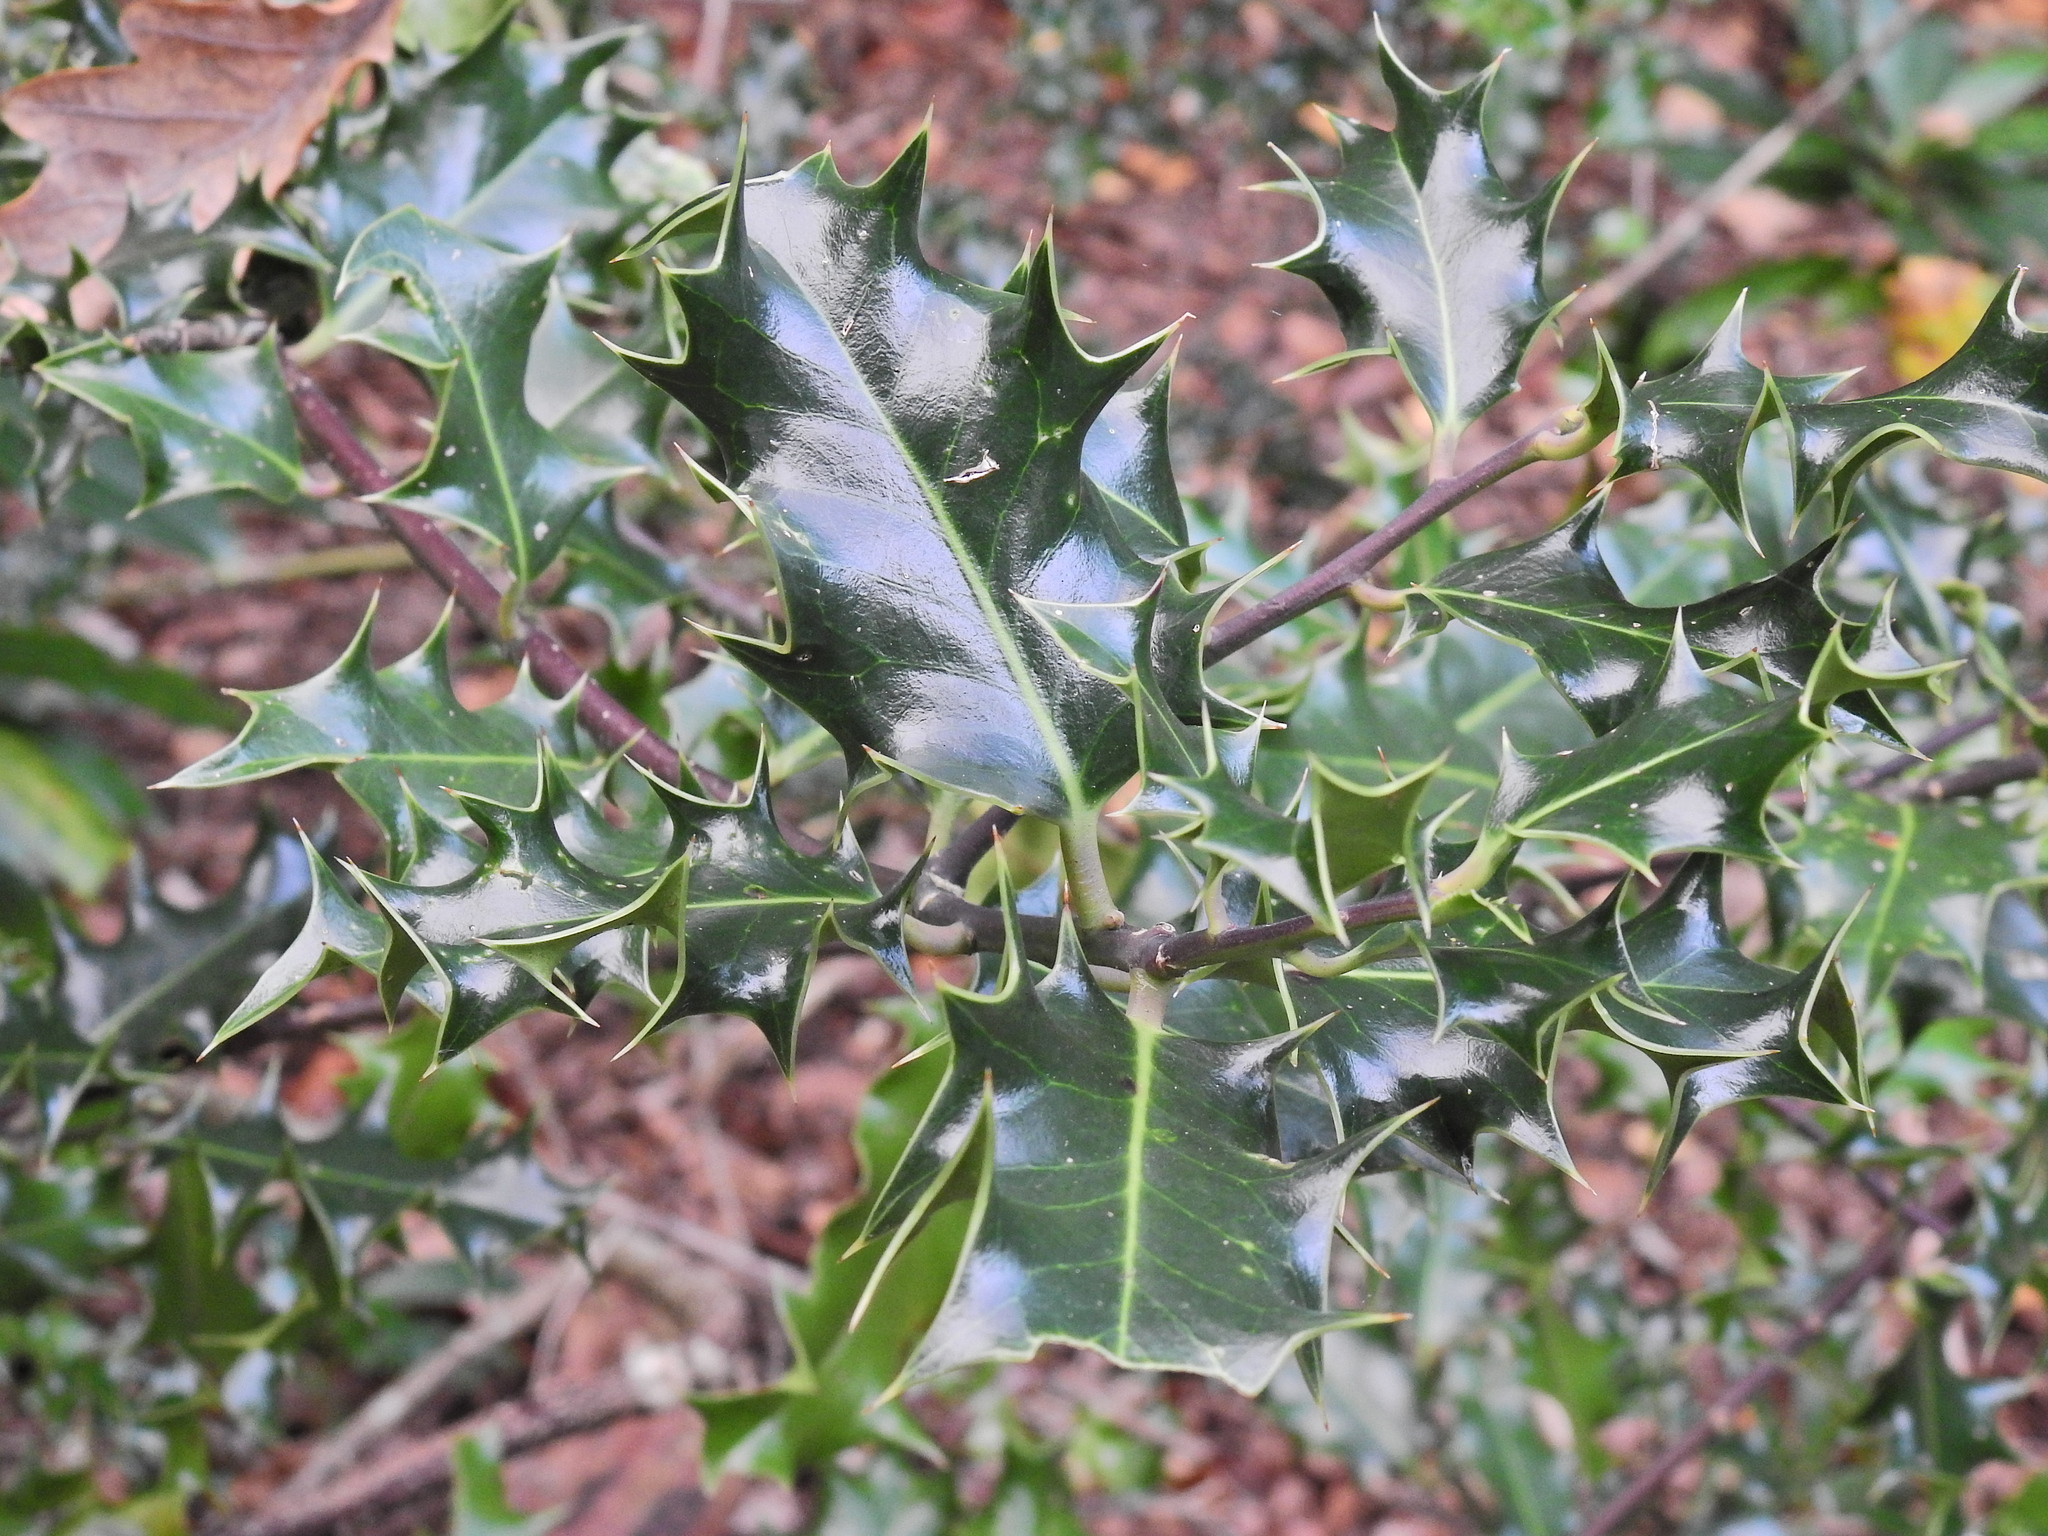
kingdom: Plantae
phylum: Tracheophyta
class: Magnoliopsida
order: Aquifoliales
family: Aquifoliaceae
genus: Ilex
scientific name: Ilex aquifolium
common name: English holly
